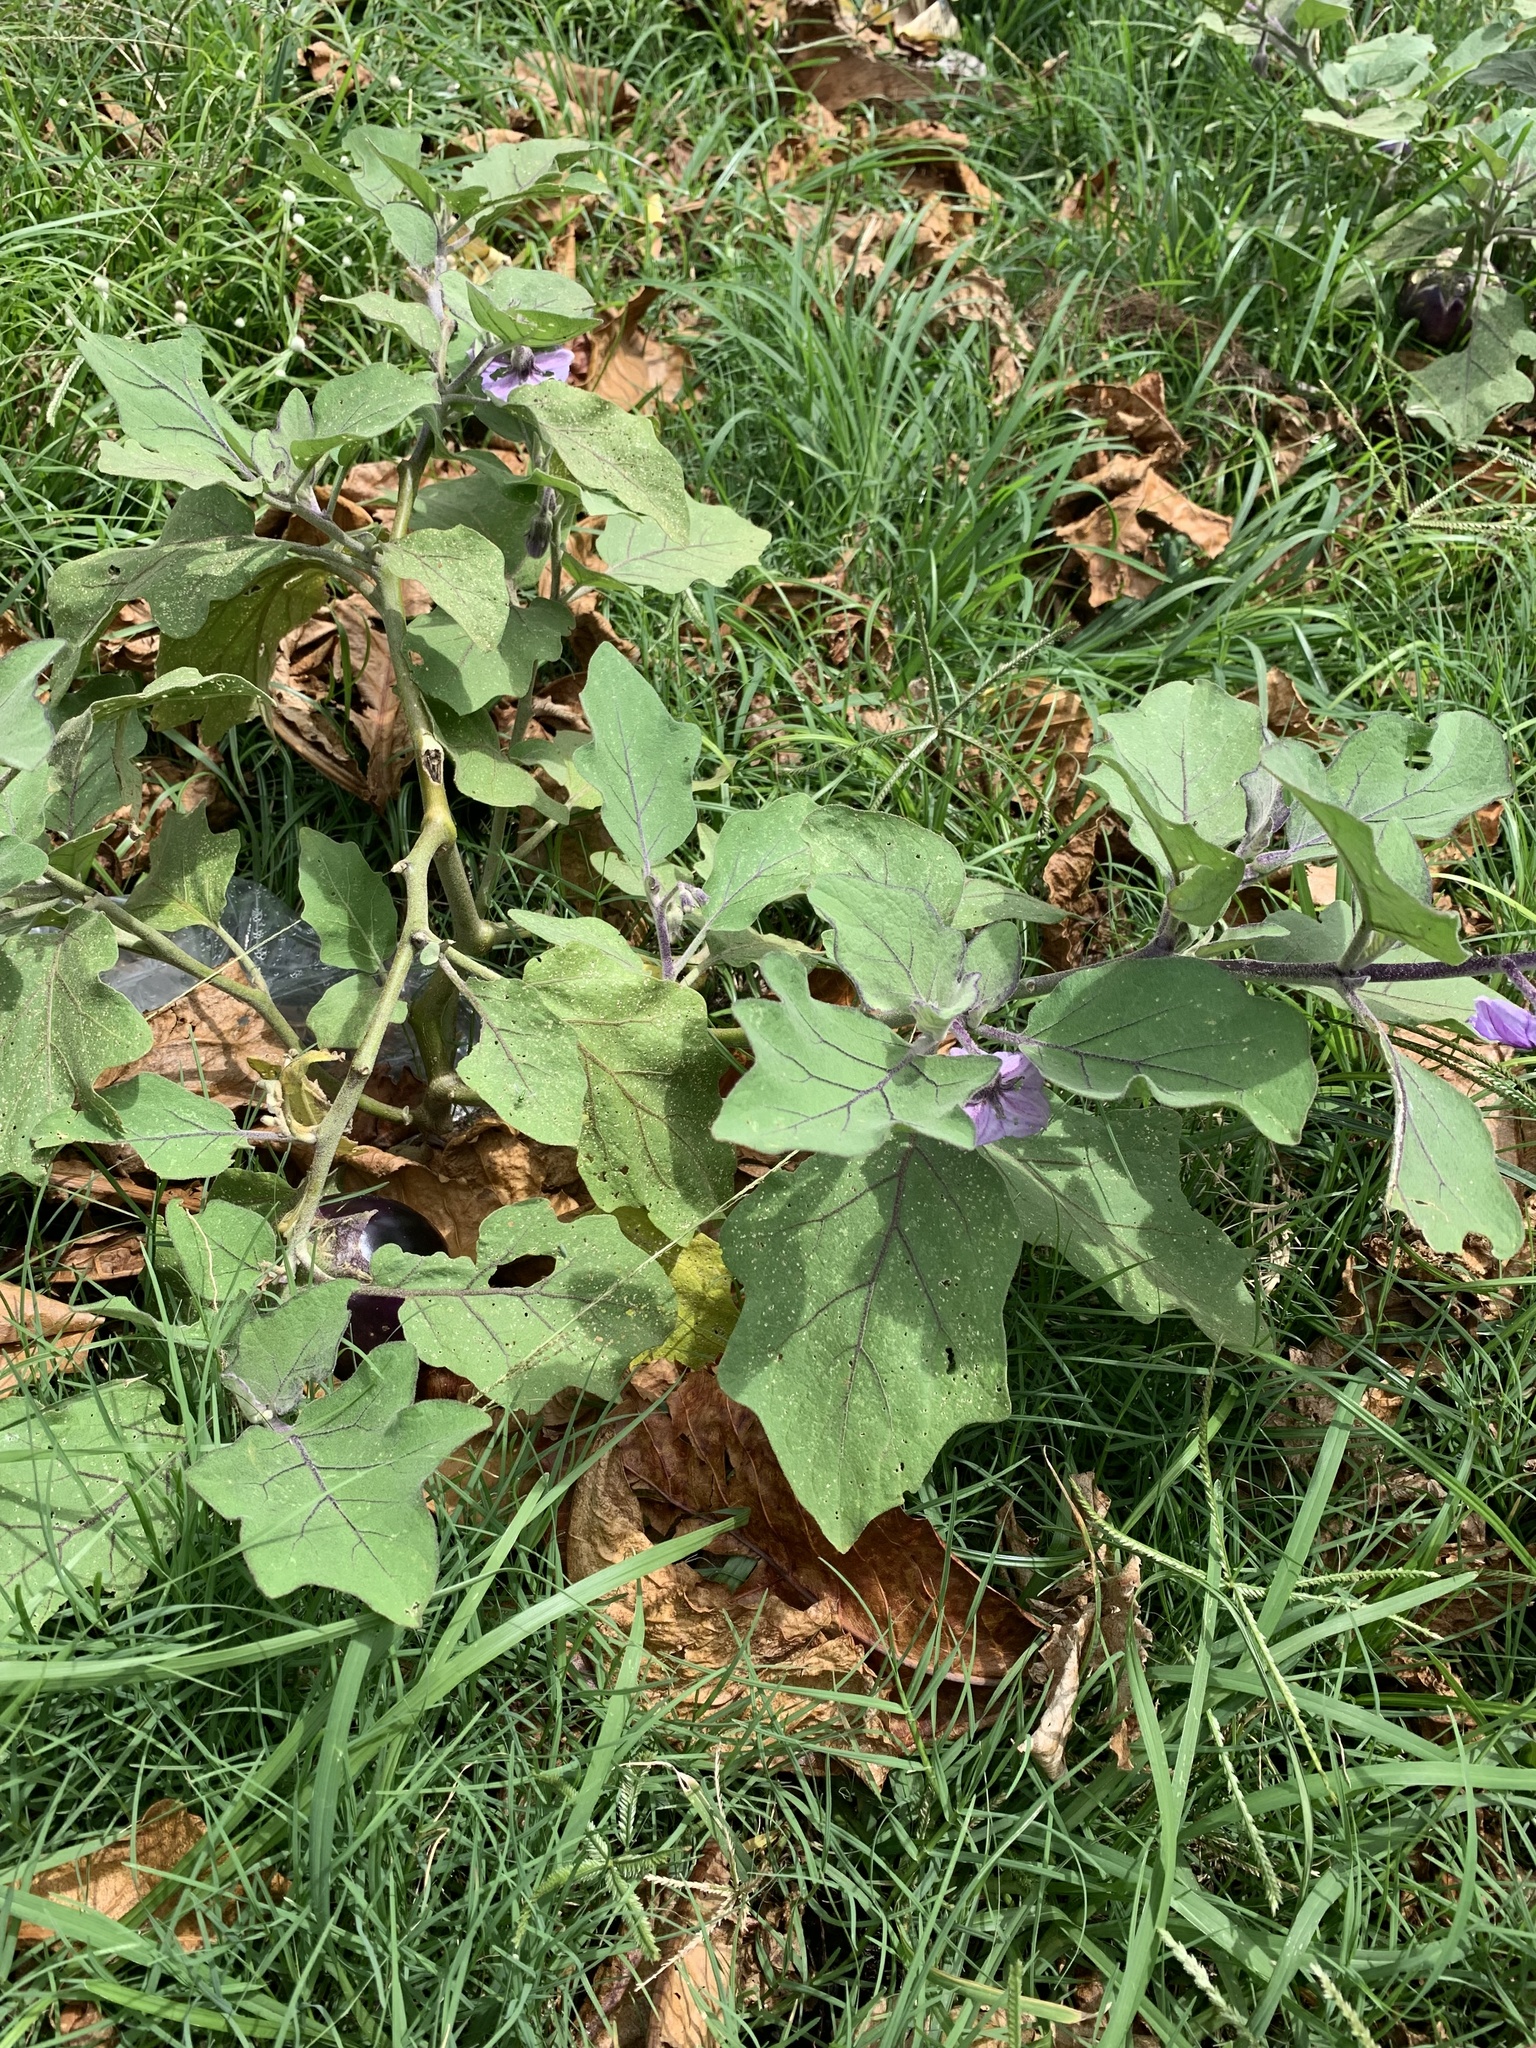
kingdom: Plantae
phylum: Tracheophyta
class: Magnoliopsida
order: Solanales
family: Solanaceae
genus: Solanum
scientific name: Solanum melongena
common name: Eggplant
